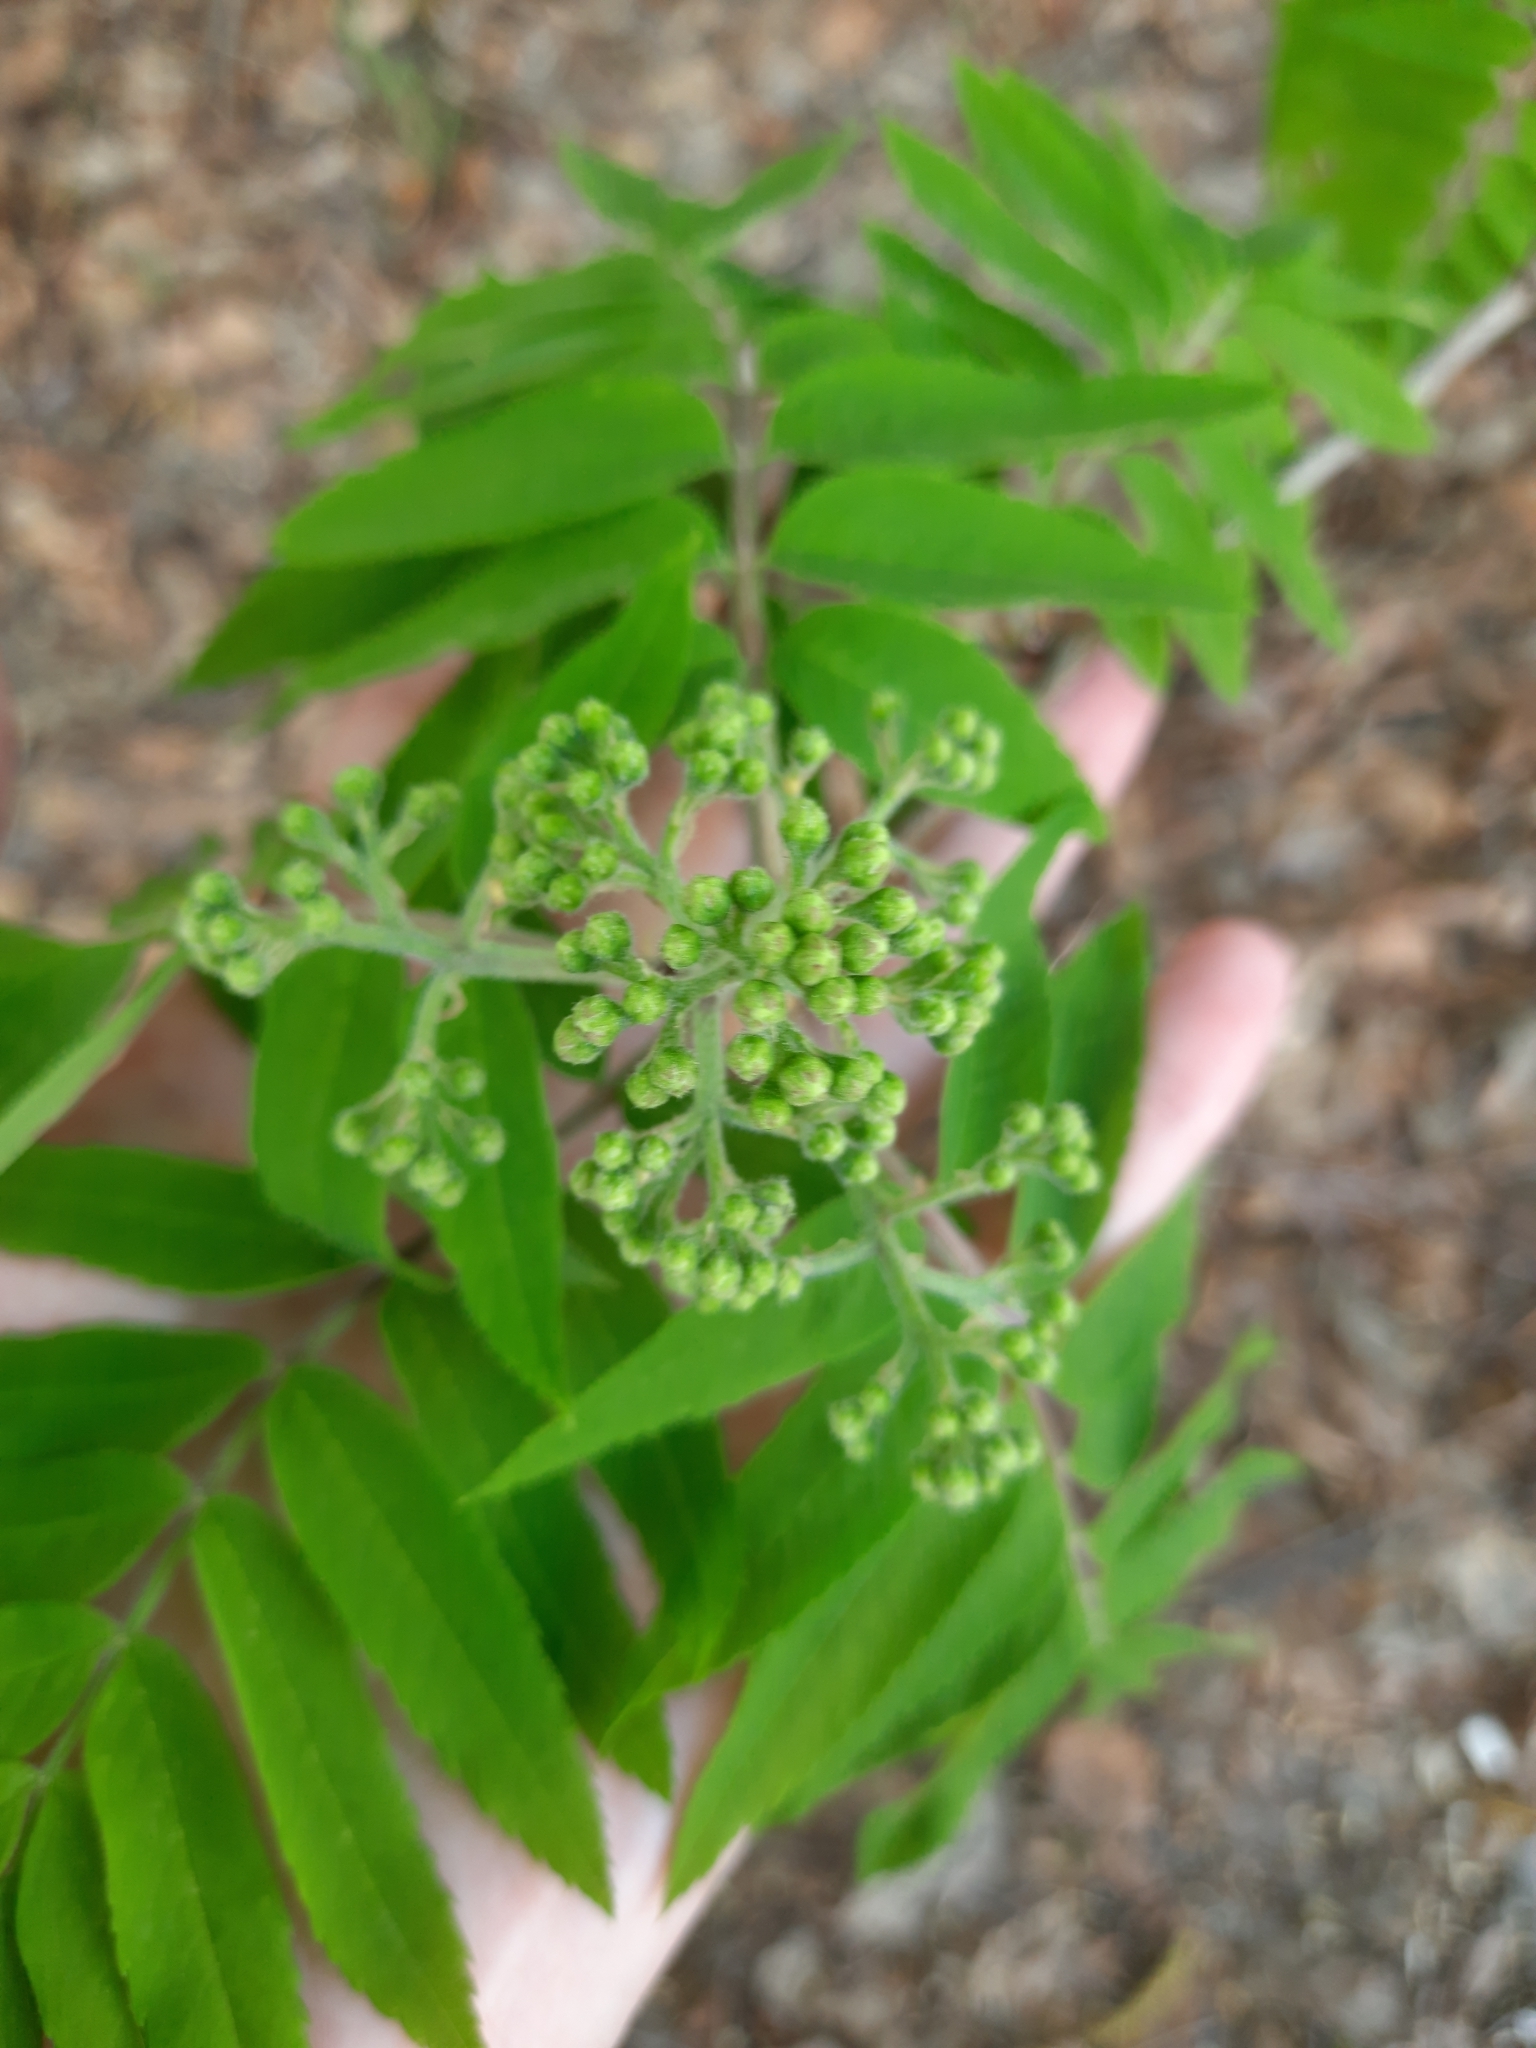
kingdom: Plantae
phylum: Tracheophyta
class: Magnoliopsida
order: Rosales
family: Rosaceae
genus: Sorbus
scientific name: Sorbus aucuparia
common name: Rowan
